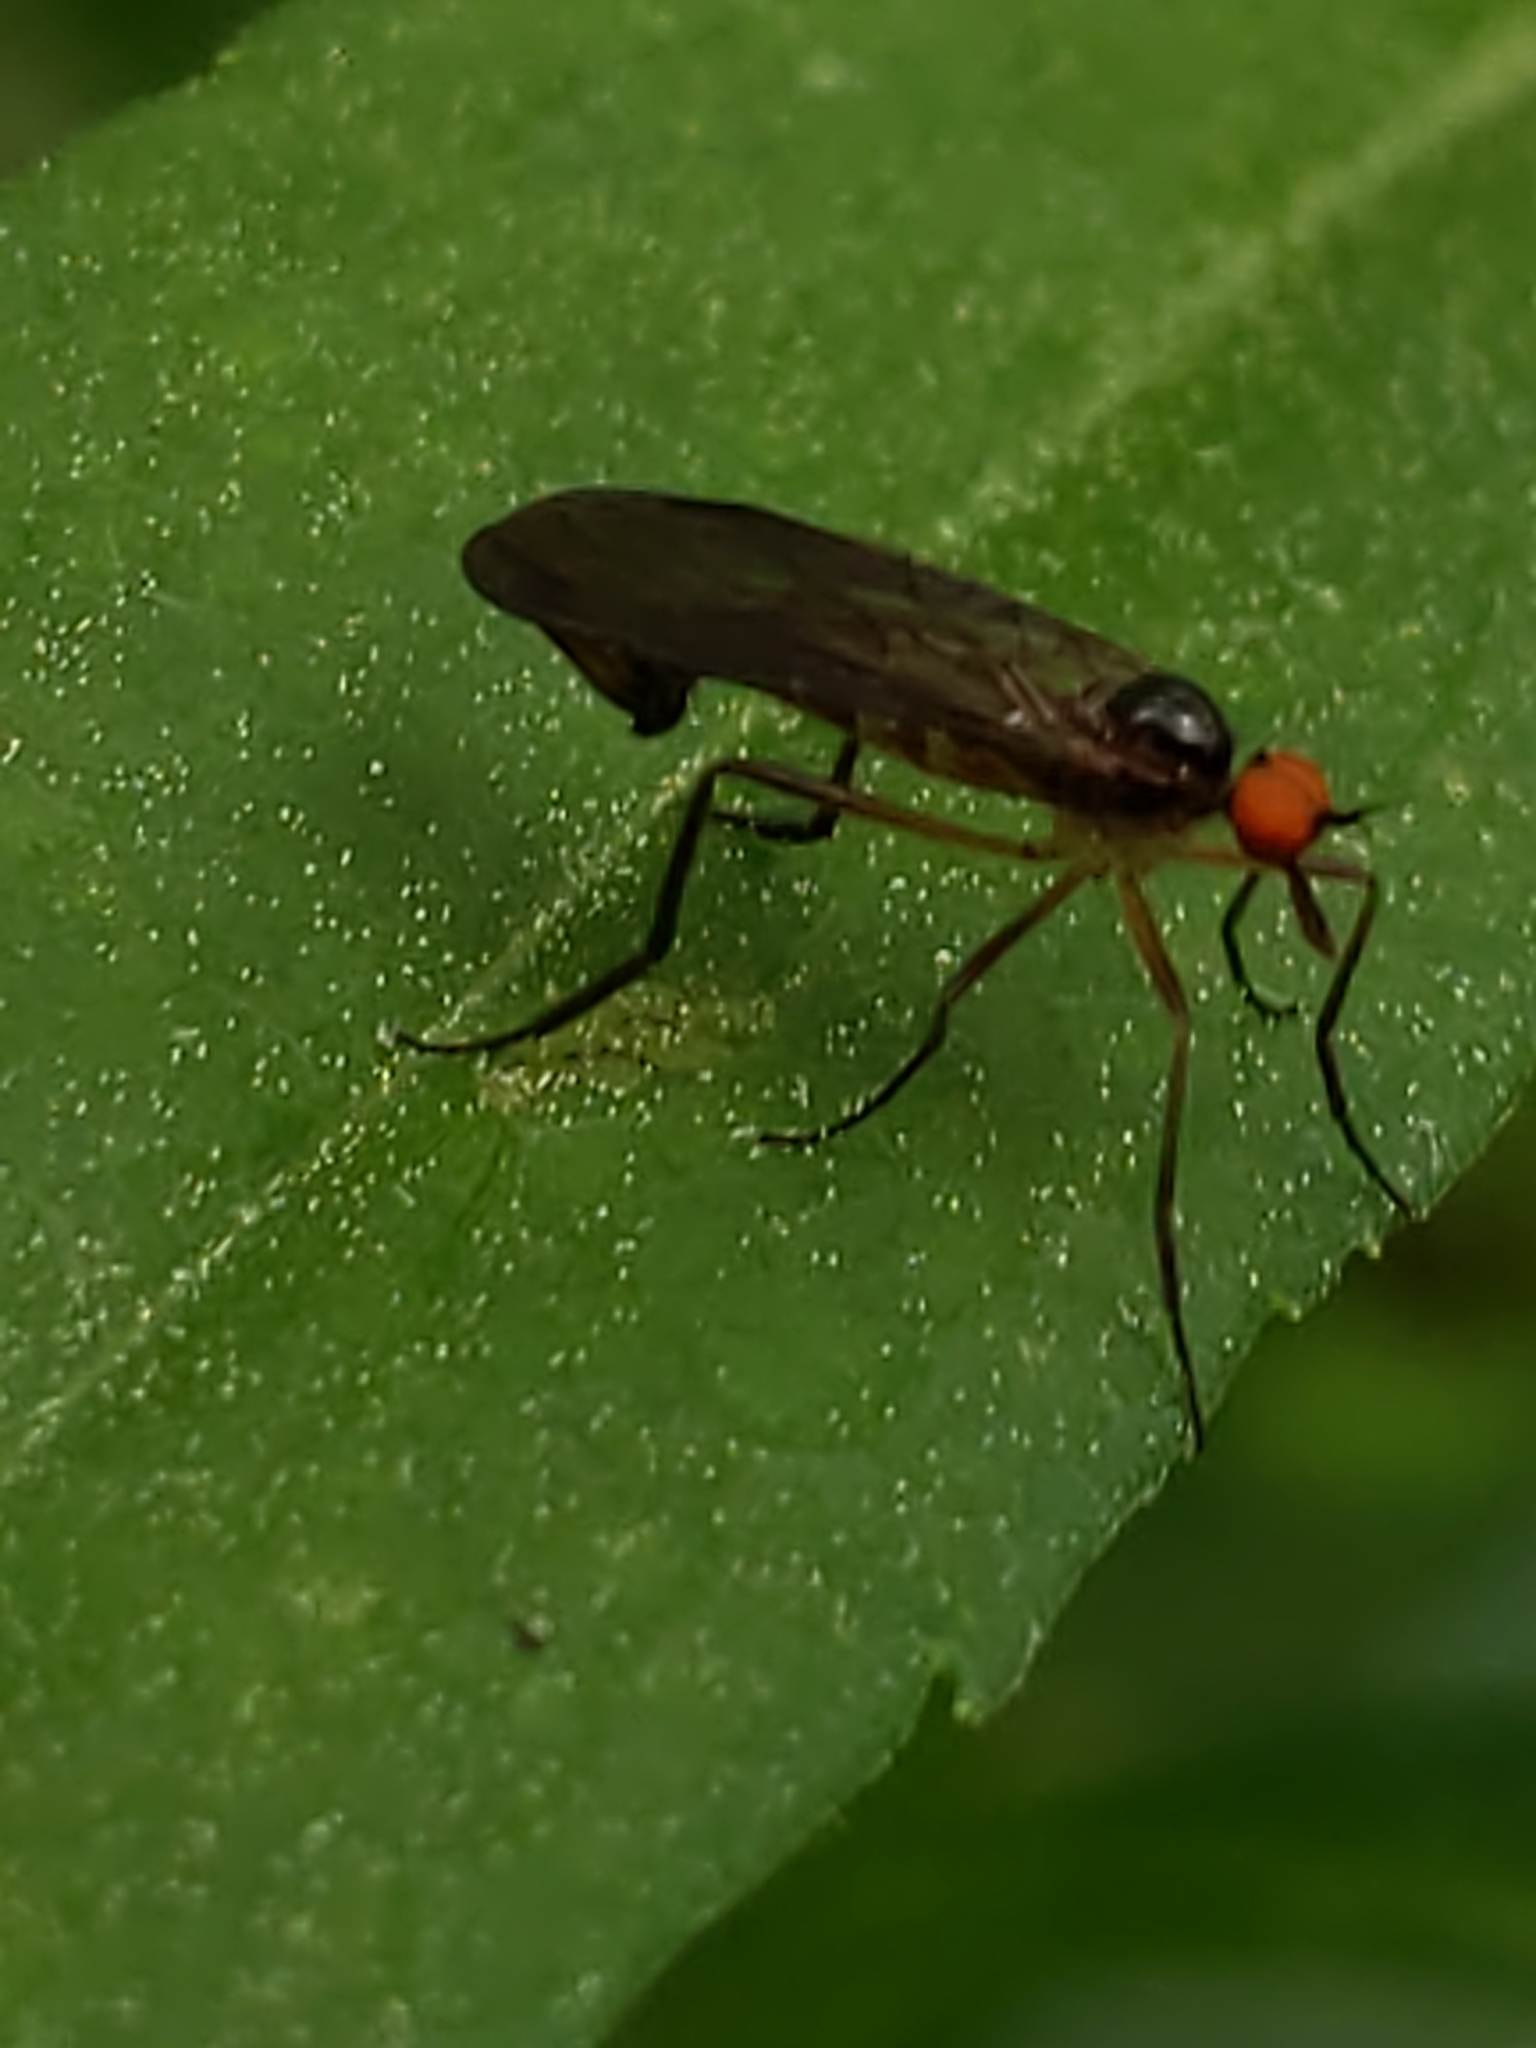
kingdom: Animalia
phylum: Arthropoda
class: Insecta
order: Diptera
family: Empididae
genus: Rhamphomyia
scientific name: Rhamphomyia longicauda
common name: Long-tailed dance fly
